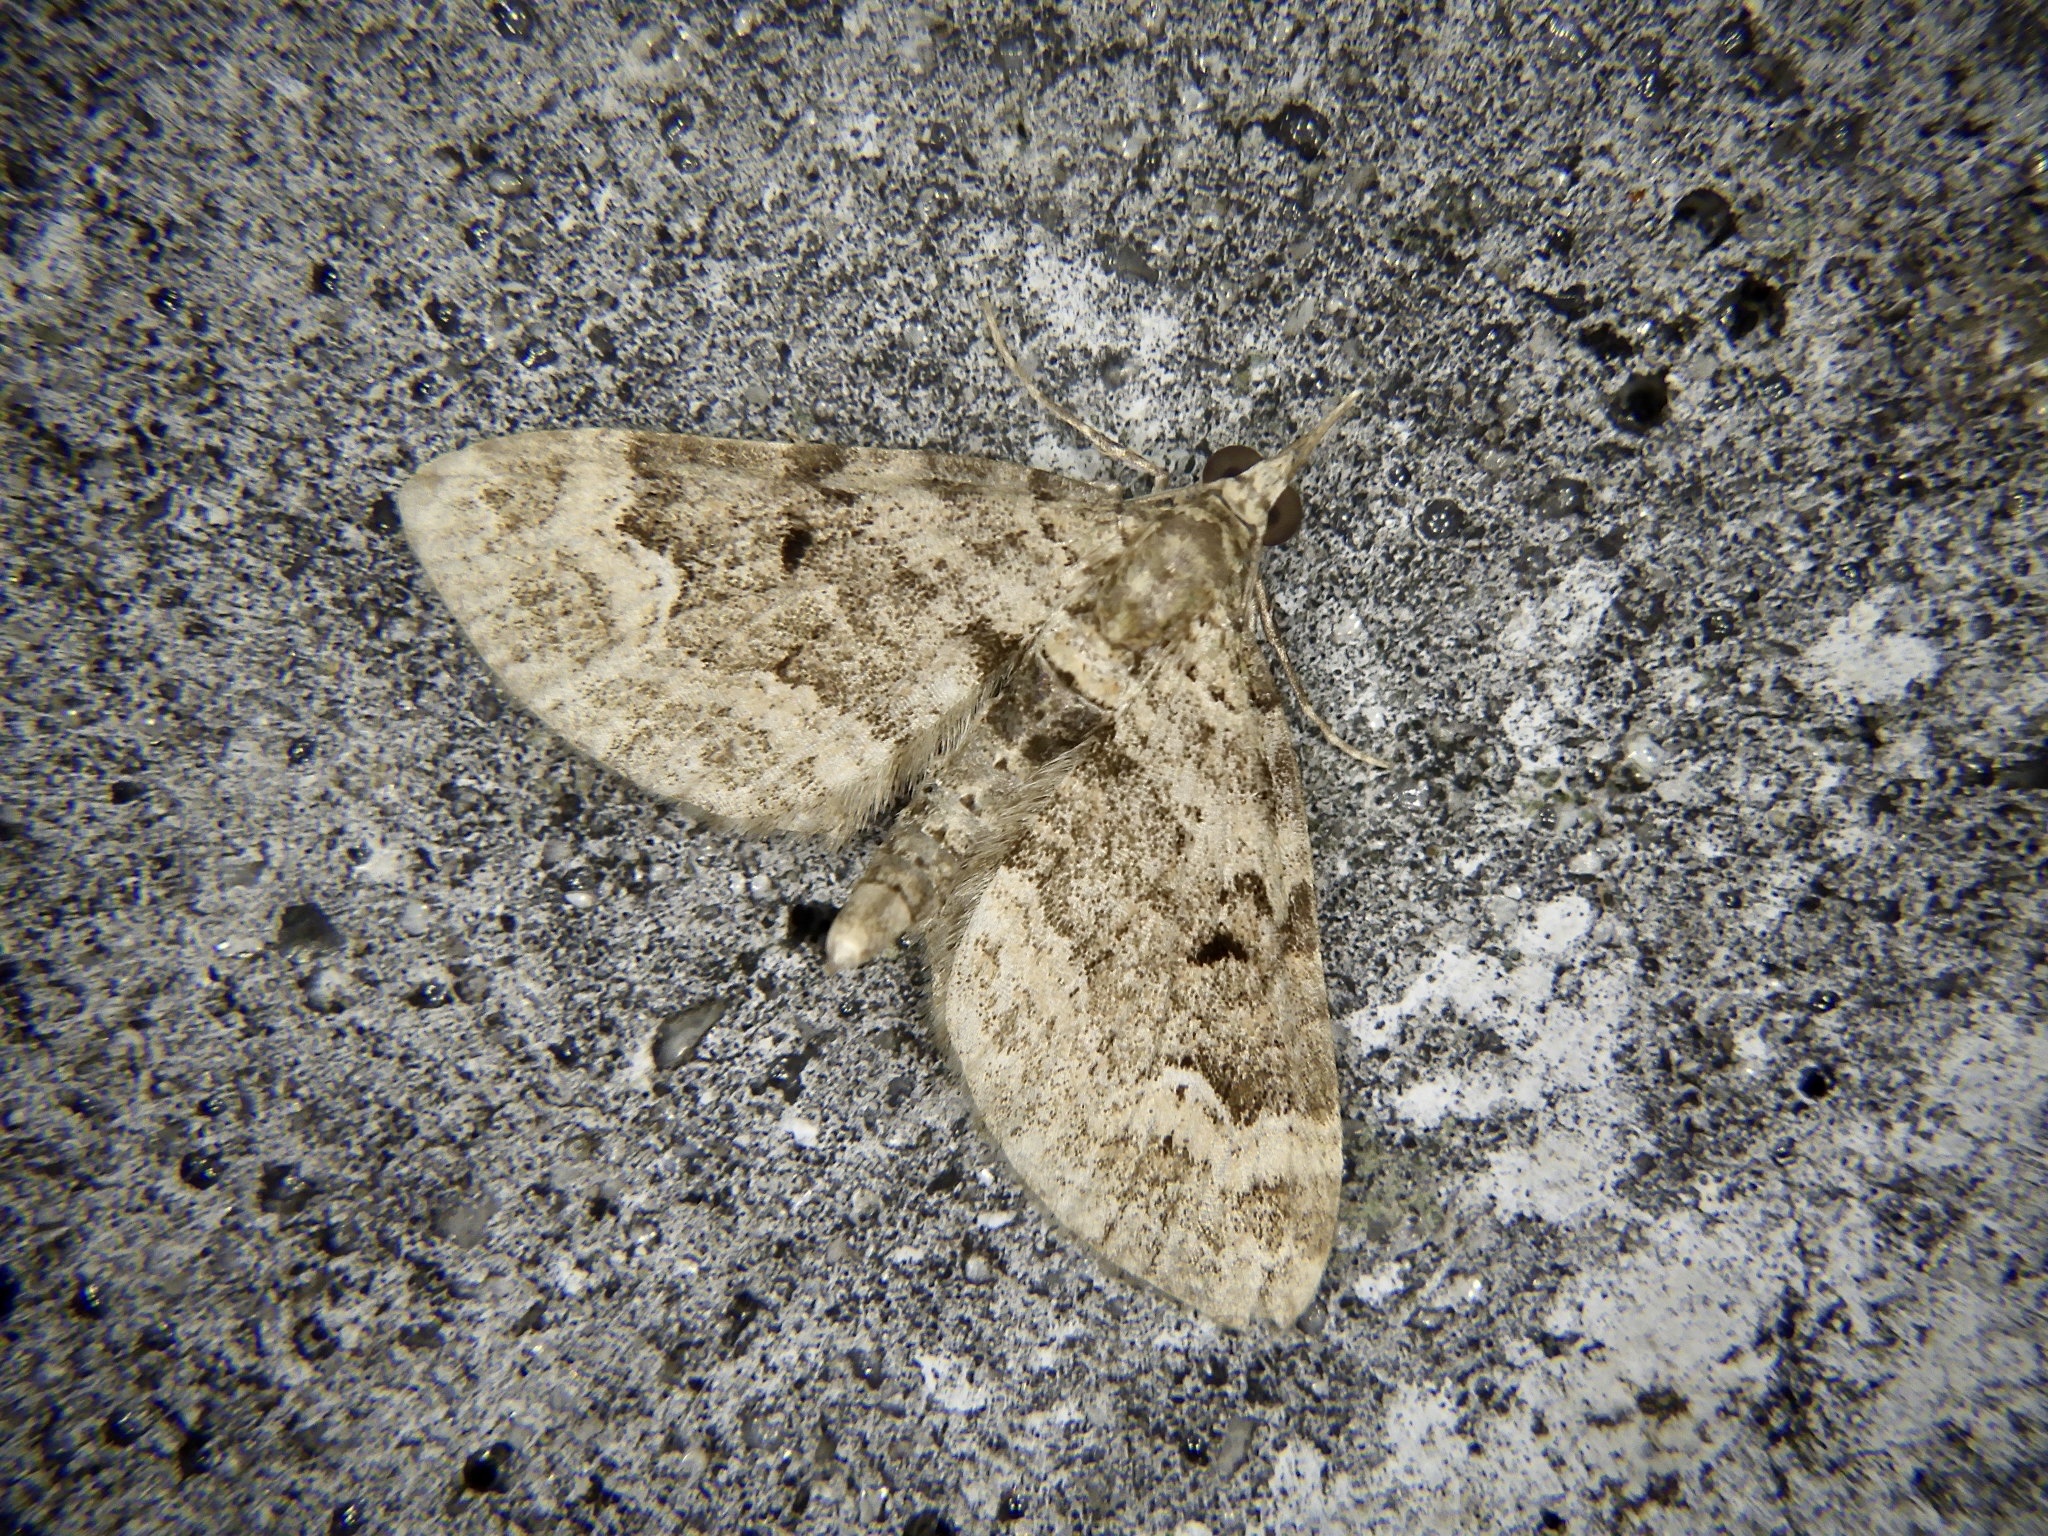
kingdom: Animalia
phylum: Arthropoda
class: Insecta
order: Lepidoptera
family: Geometridae
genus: Chloroclystis
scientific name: Chloroclystis
